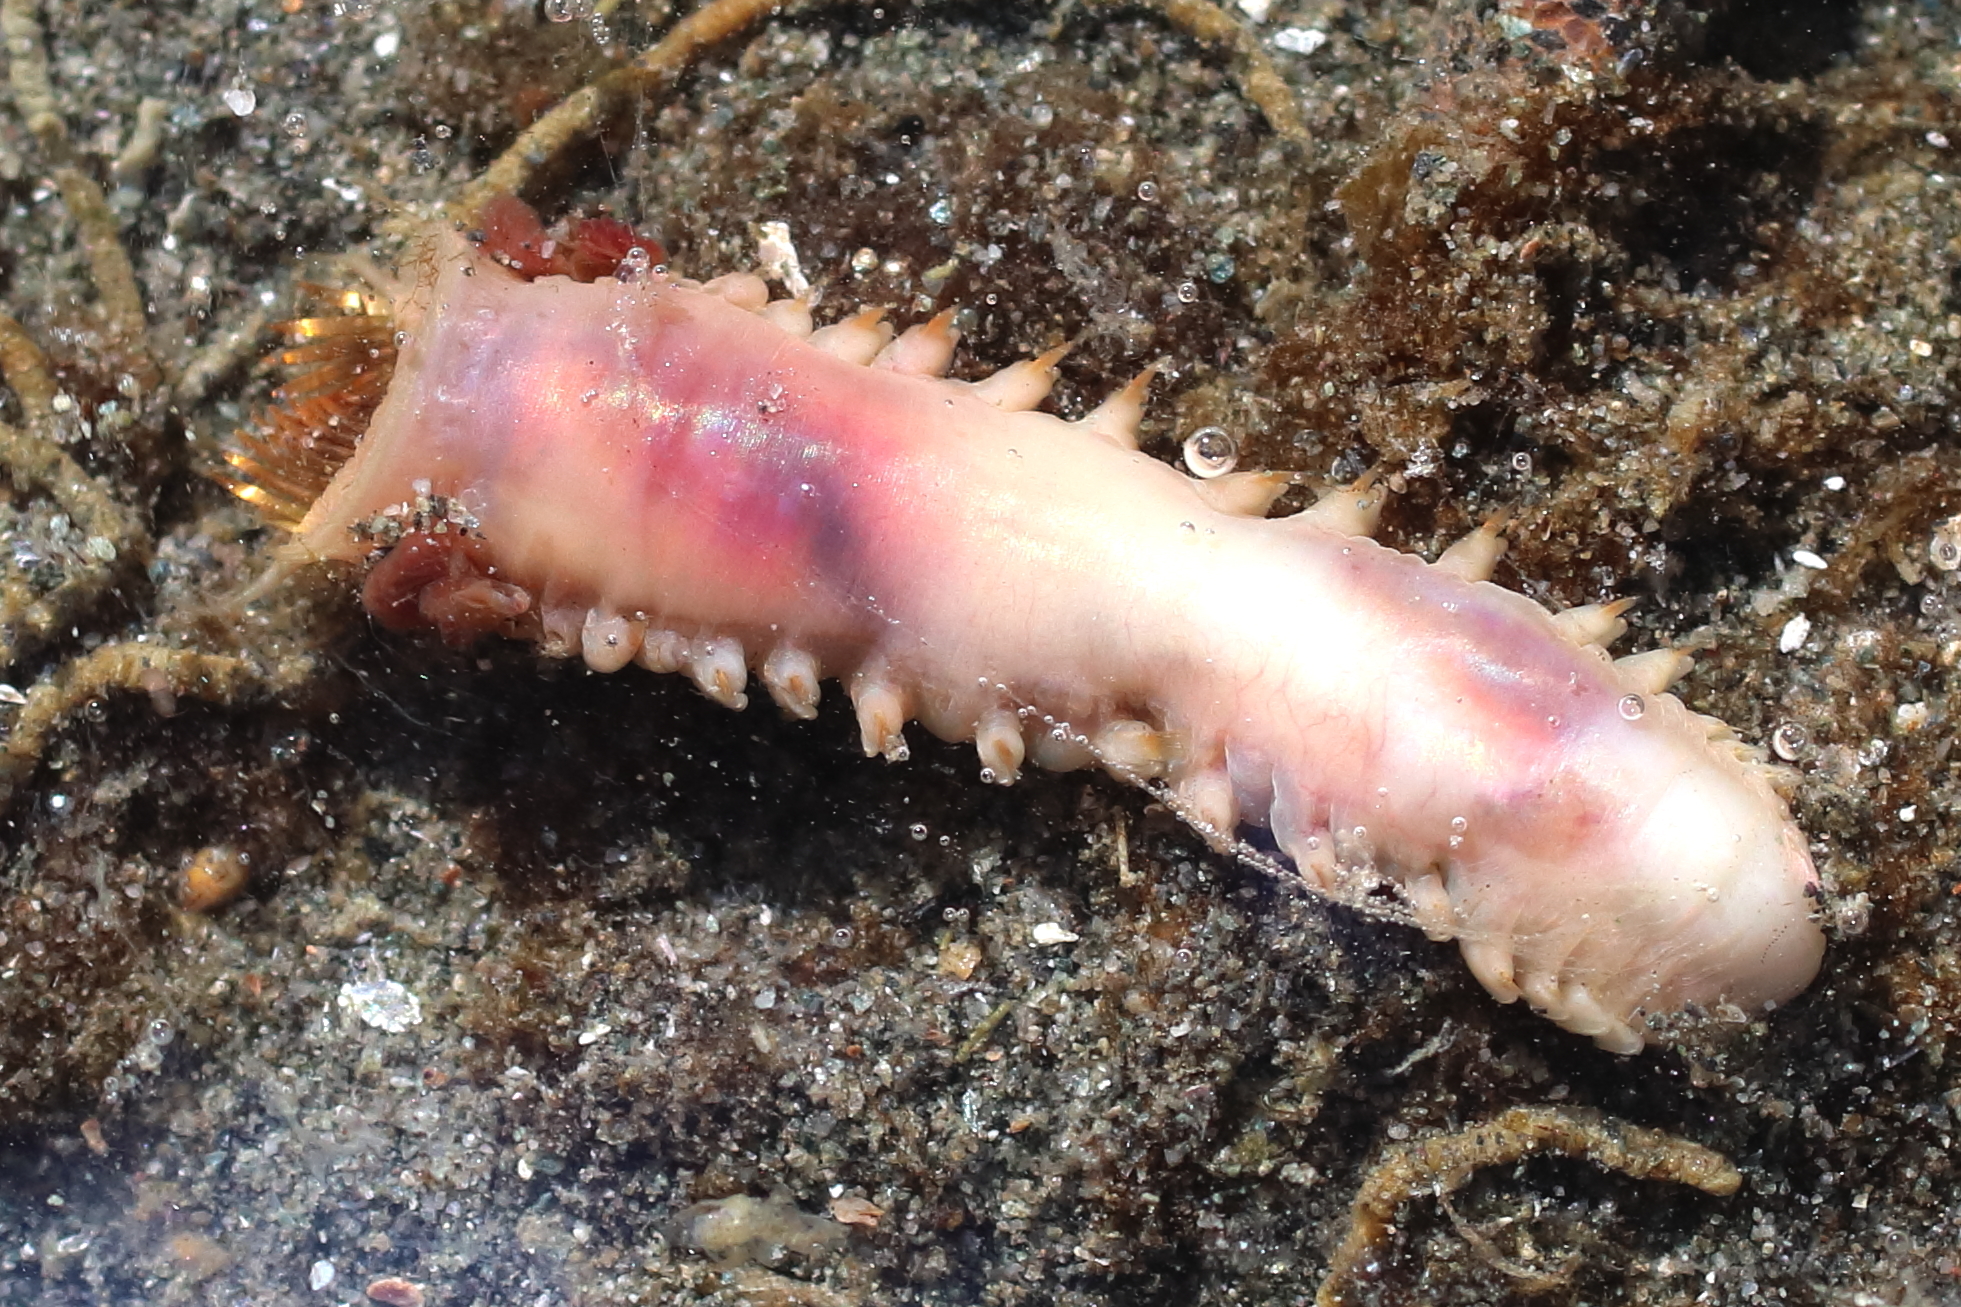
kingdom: Animalia
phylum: Annelida
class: Polychaeta
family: Pectinariidae
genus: Cistenides
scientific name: Cistenides brevicoma
